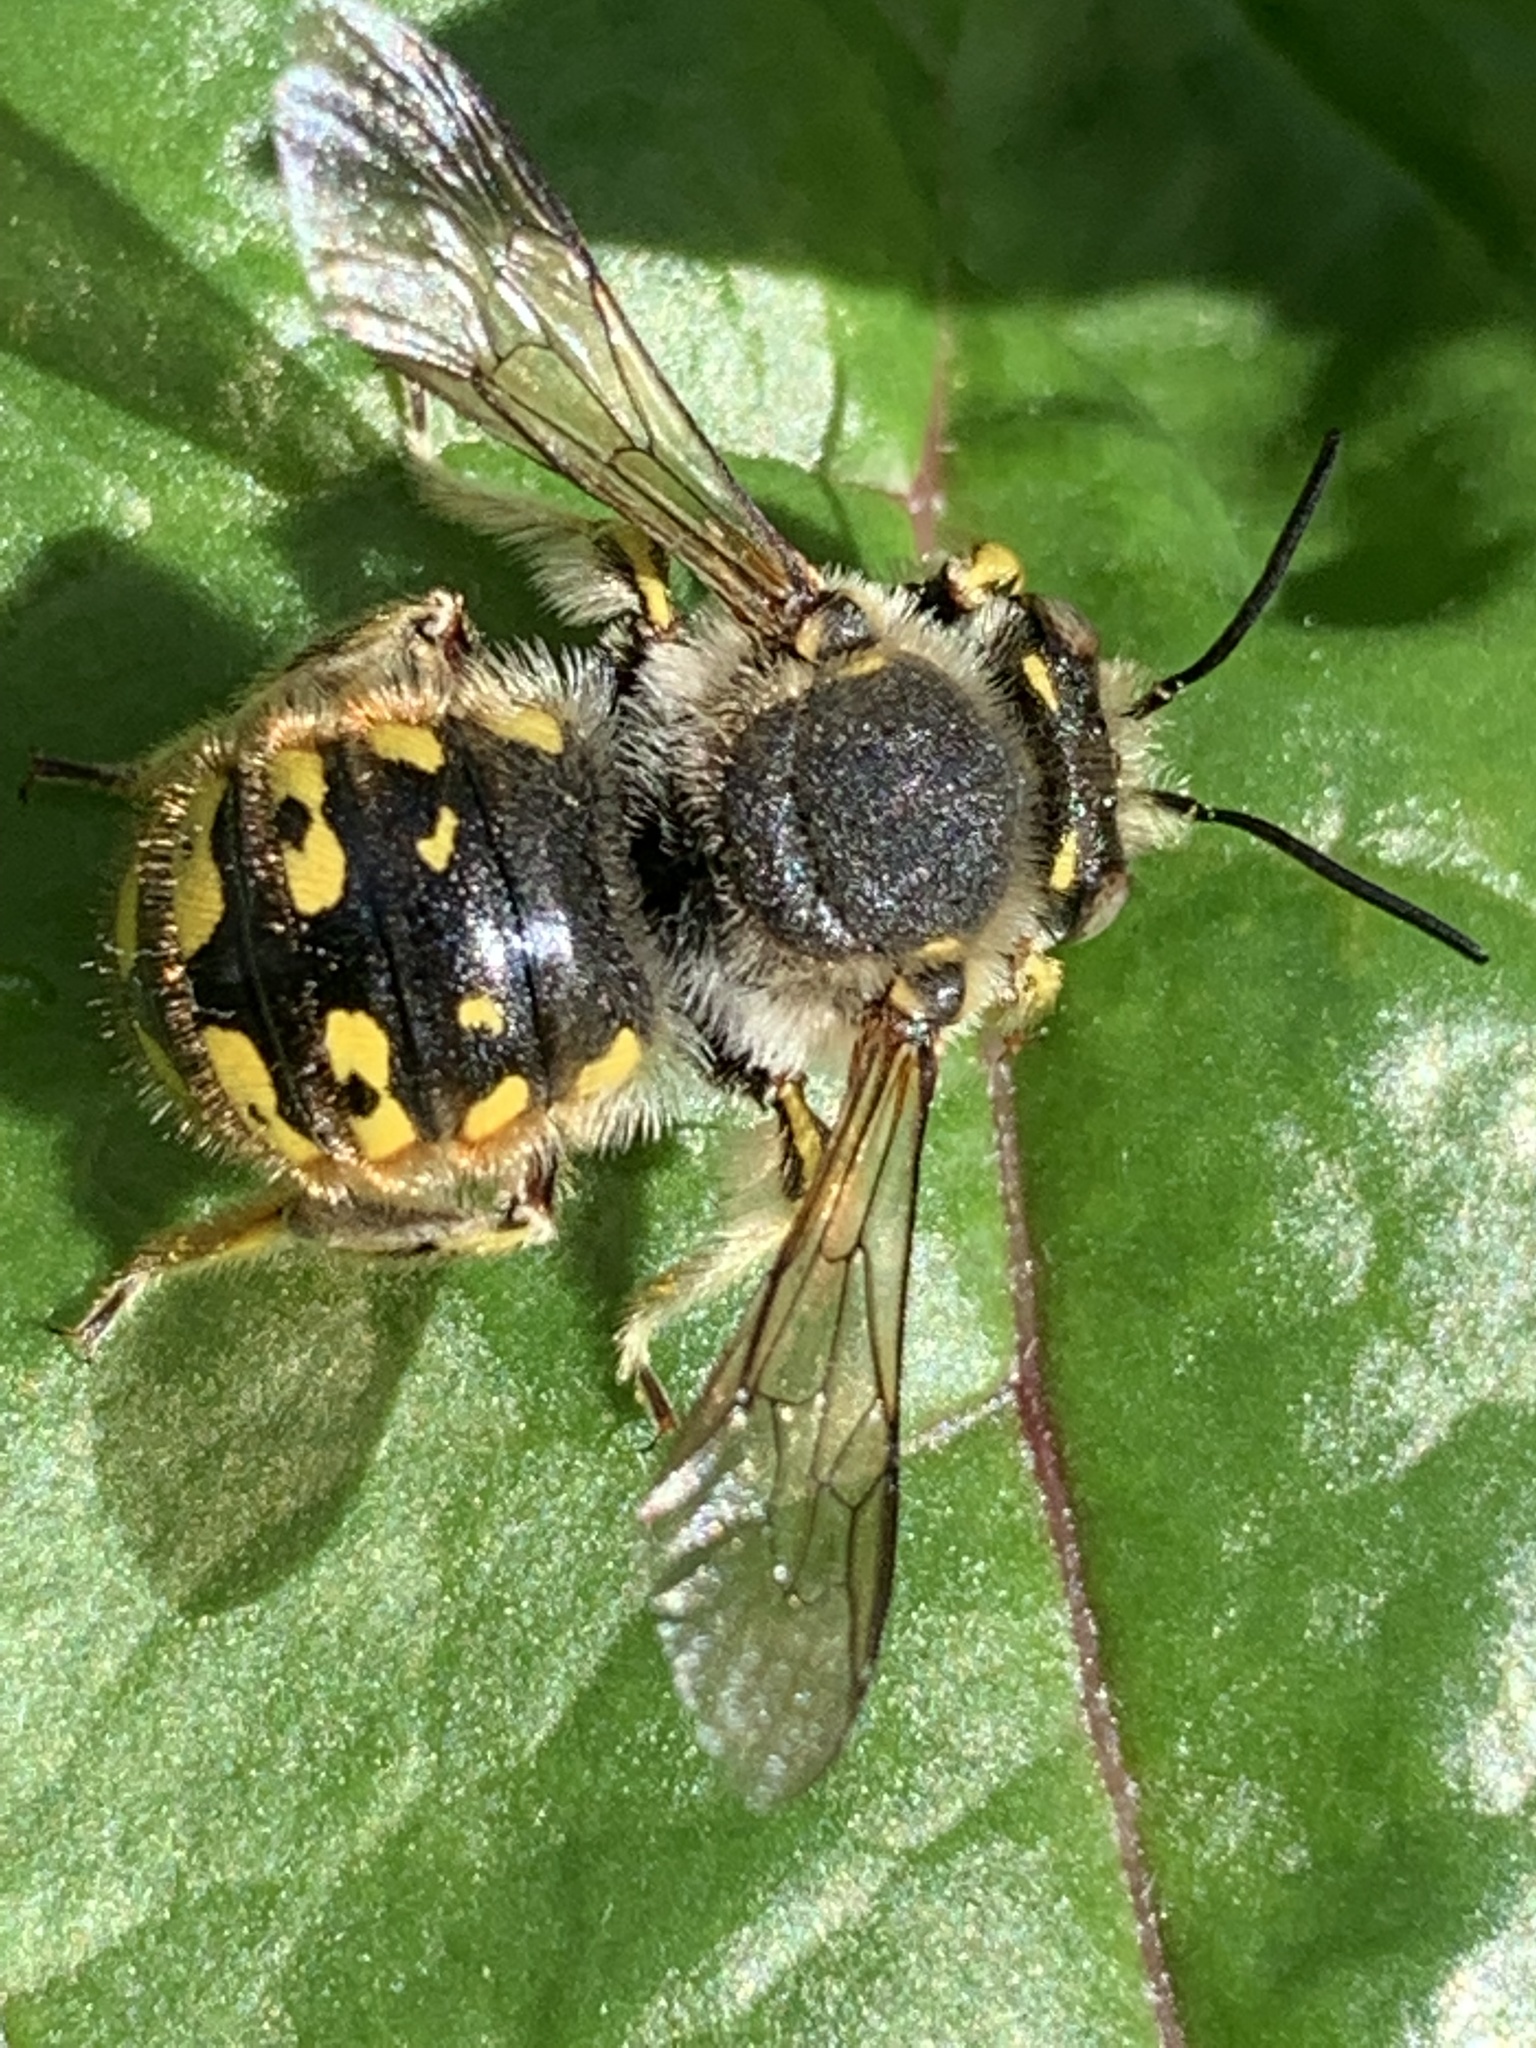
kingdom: Animalia
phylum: Arthropoda
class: Insecta
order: Hymenoptera
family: Megachilidae
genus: Anthidium
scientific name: Anthidium manicatum
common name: Wool carder bee
